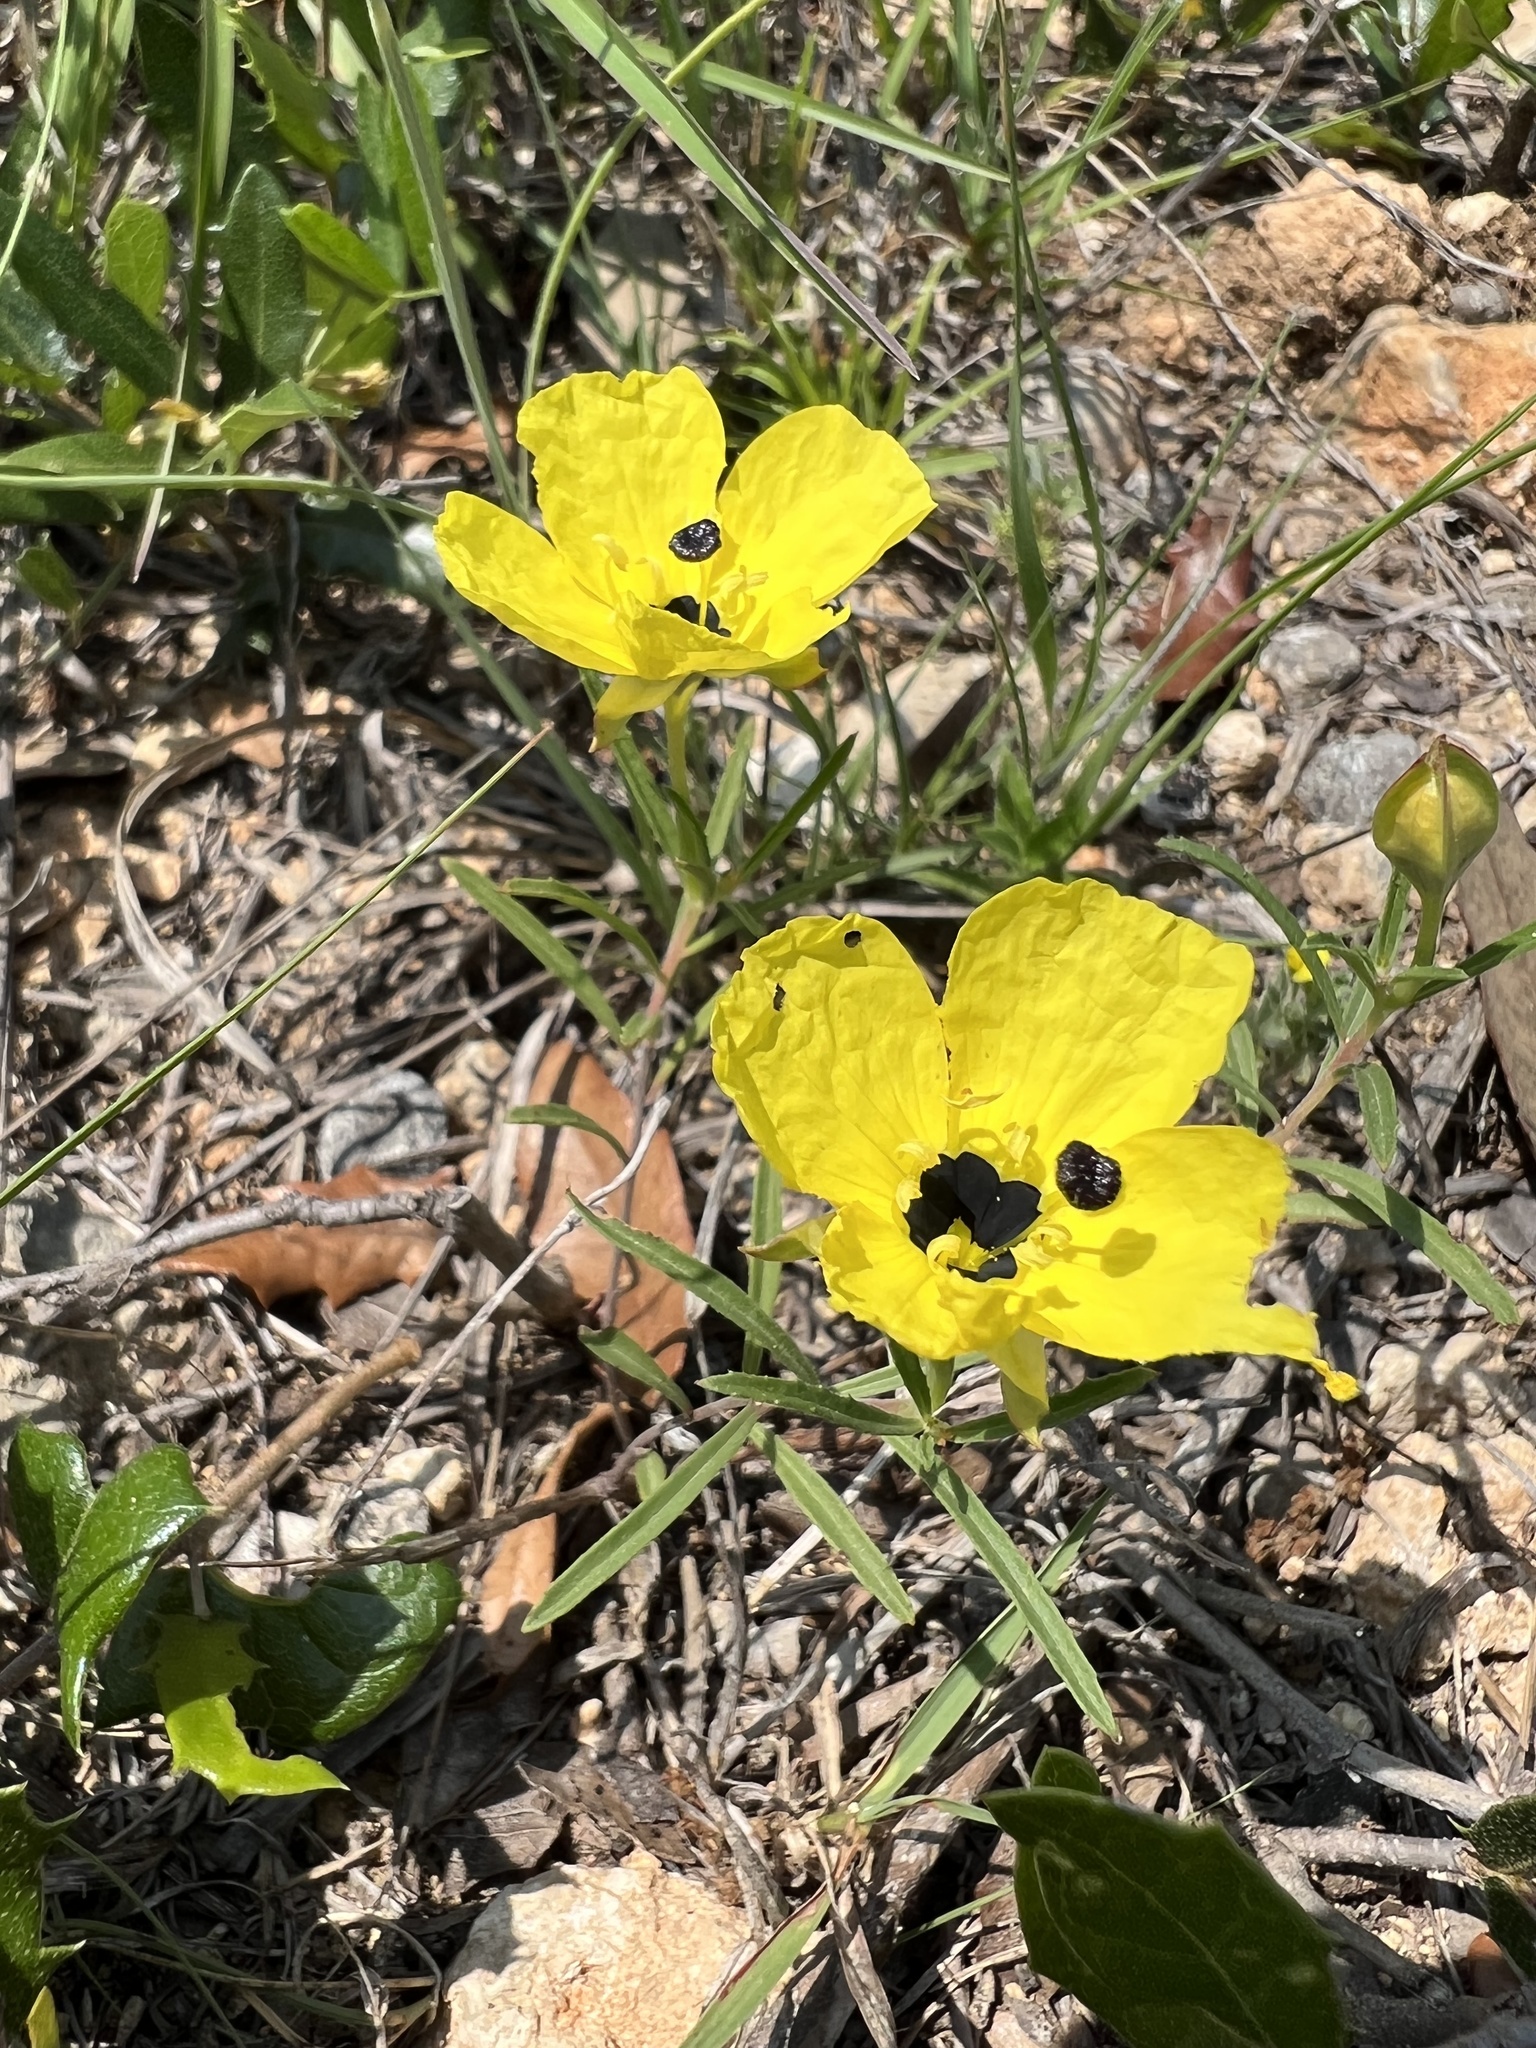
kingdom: Plantae
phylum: Tracheophyta
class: Magnoliopsida
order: Myrtales
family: Onagraceae
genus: Oenothera
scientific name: Oenothera capillifolia
